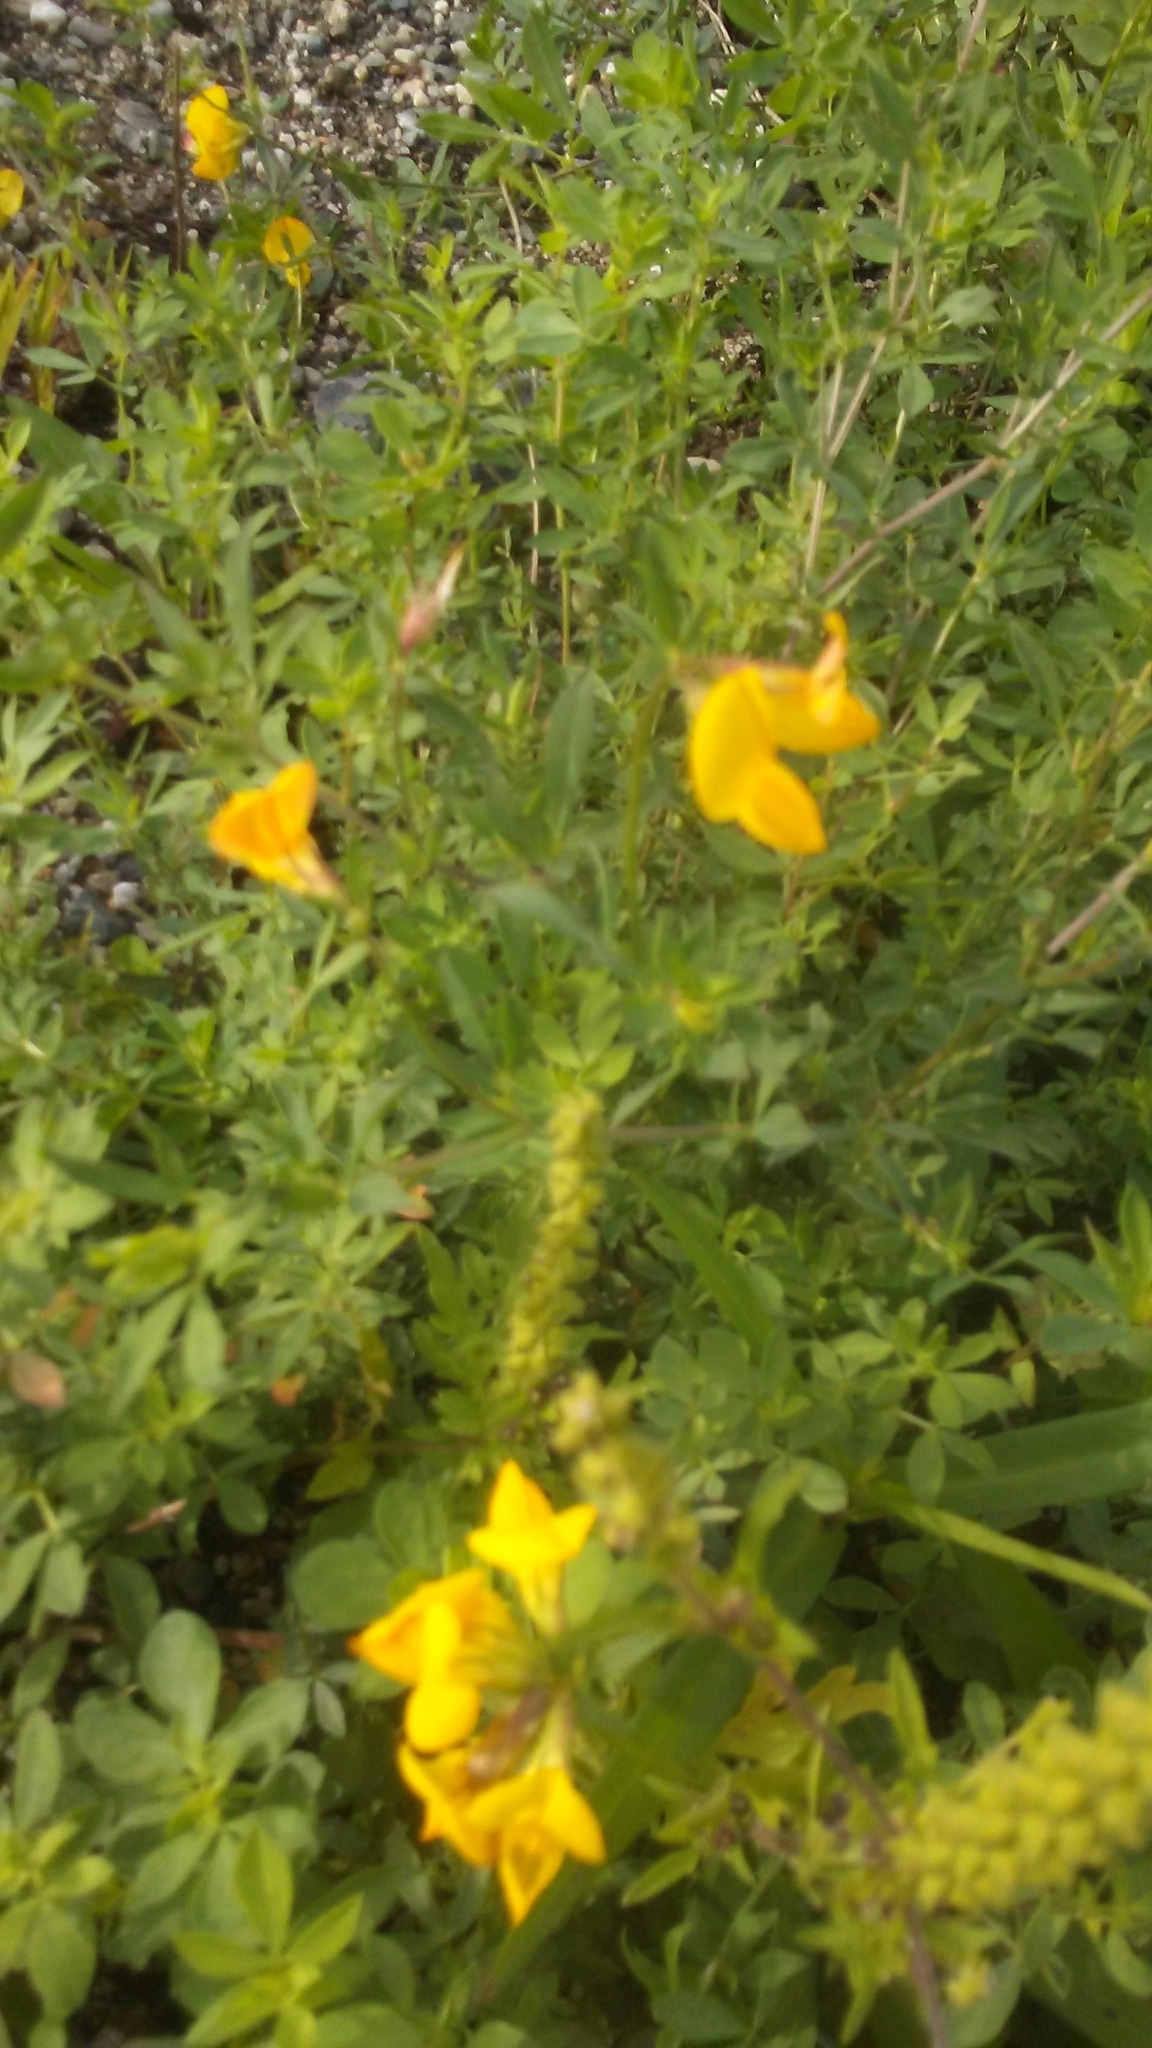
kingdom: Plantae
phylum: Tracheophyta
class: Magnoliopsida
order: Fabales
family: Fabaceae
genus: Lotus
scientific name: Lotus corniculatus
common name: Common bird's-foot-trefoil
